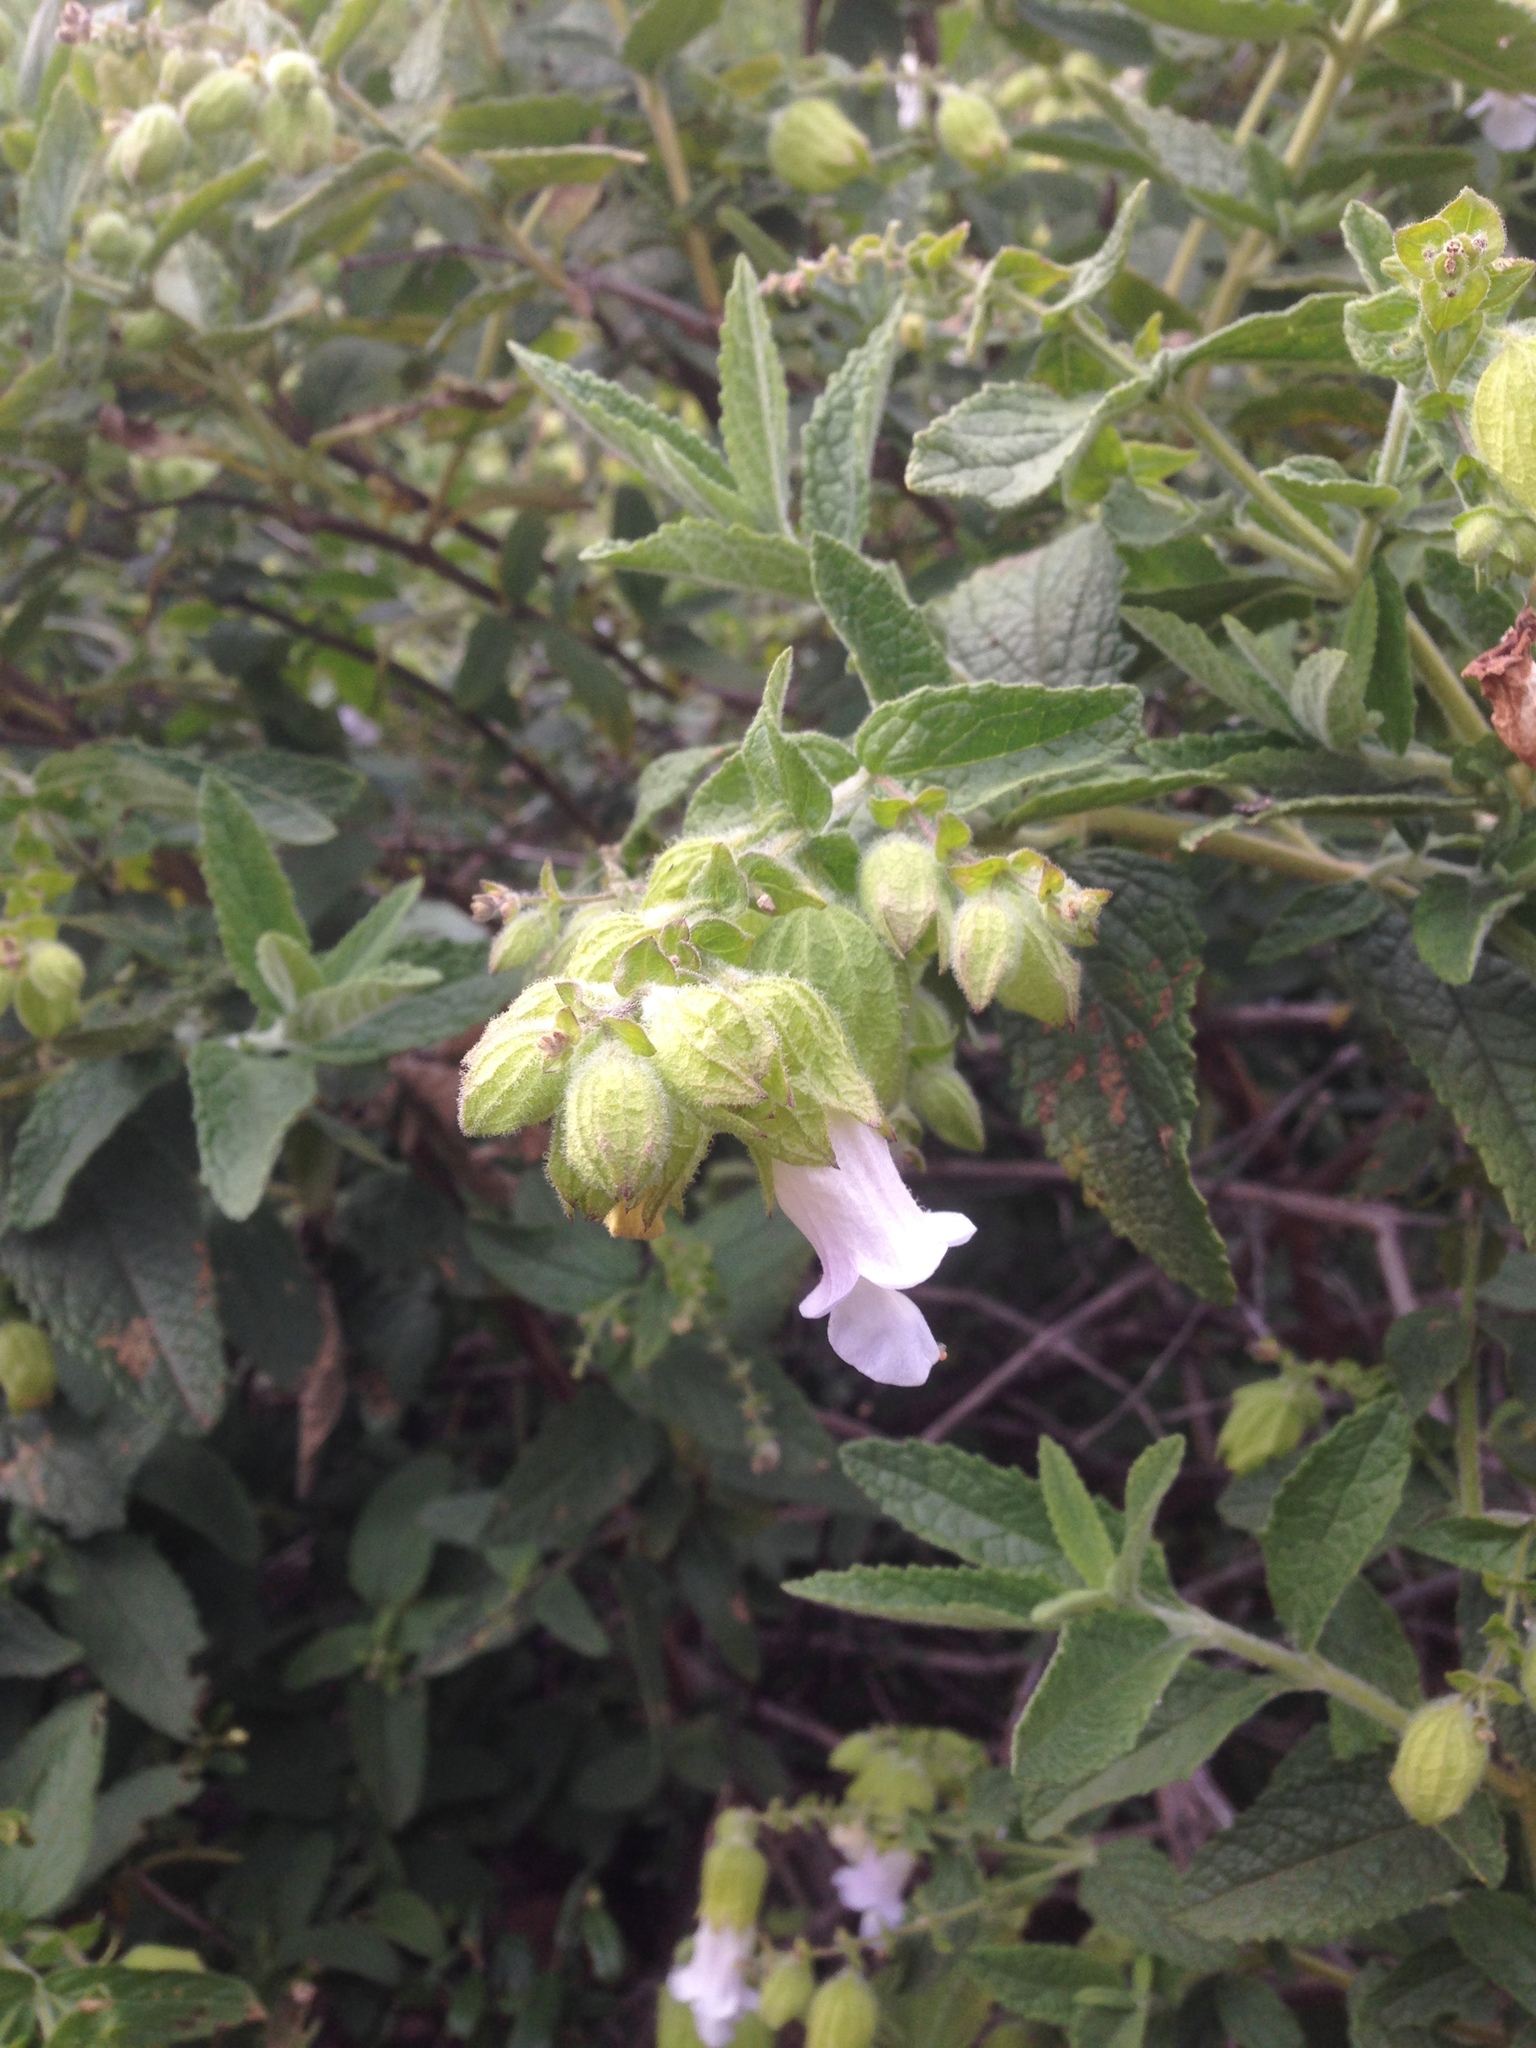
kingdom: Plantae
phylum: Tracheophyta
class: Magnoliopsida
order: Lamiales
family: Lamiaceae
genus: Lepechinia
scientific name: Lepechinia calycina
